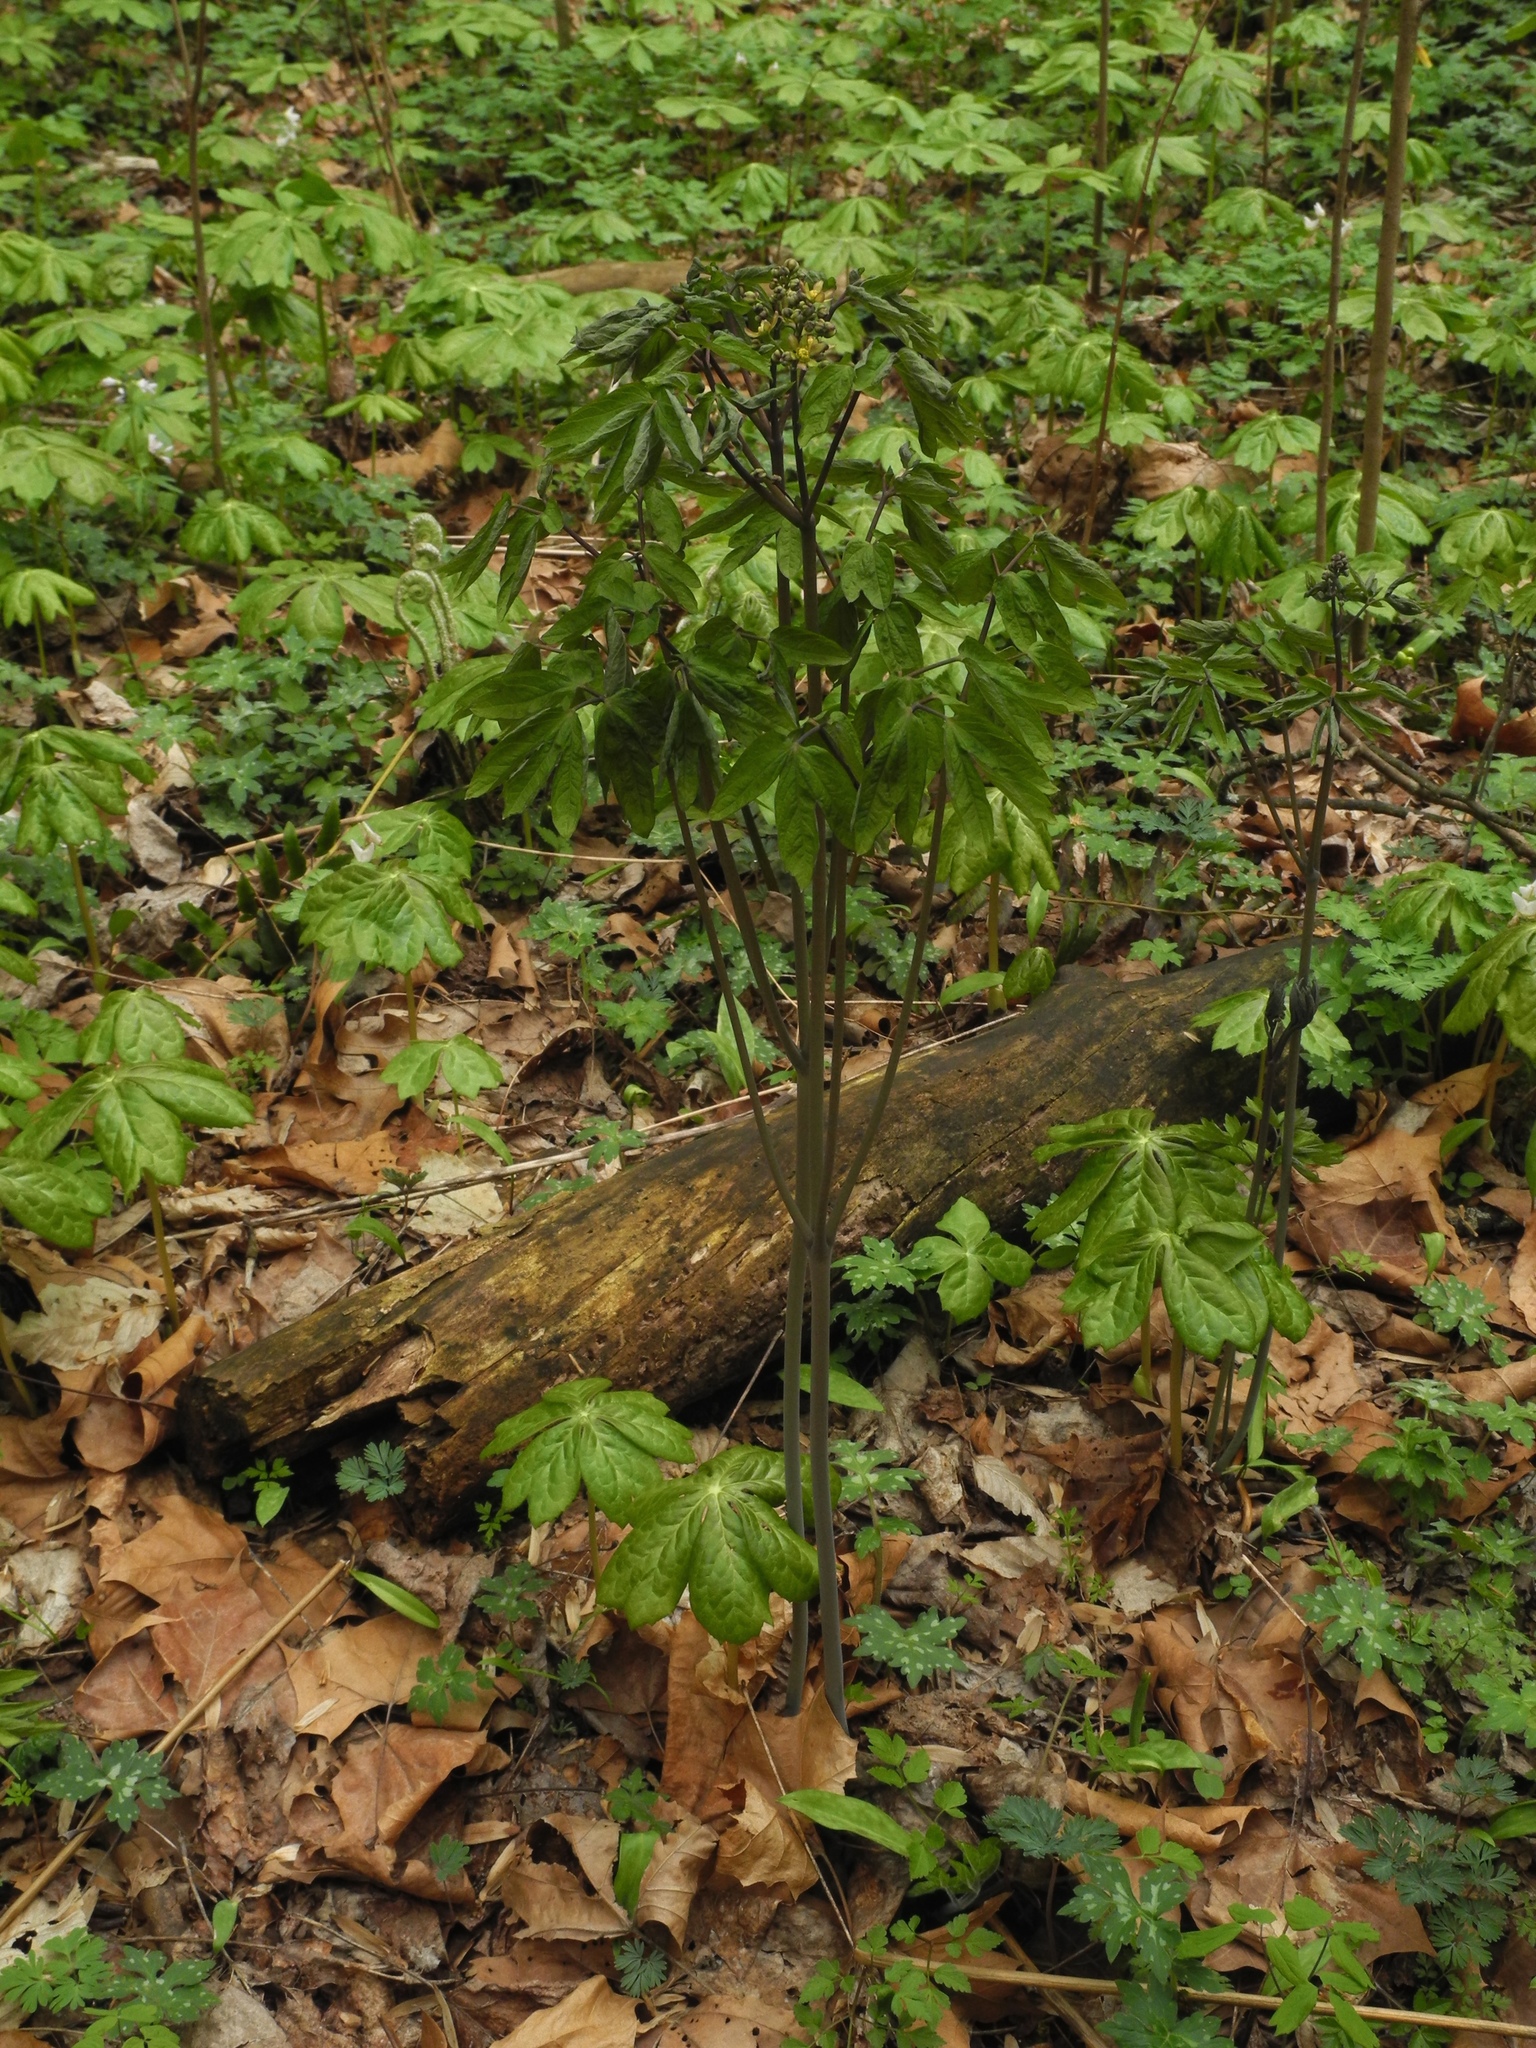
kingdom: Plantae
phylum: Tracheophyta
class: Magnoliopsida
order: Ranunculales
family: Berberidaceae
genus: Caulophyllum
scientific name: Caulophyllum thalictroides
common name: Blue cohosh
